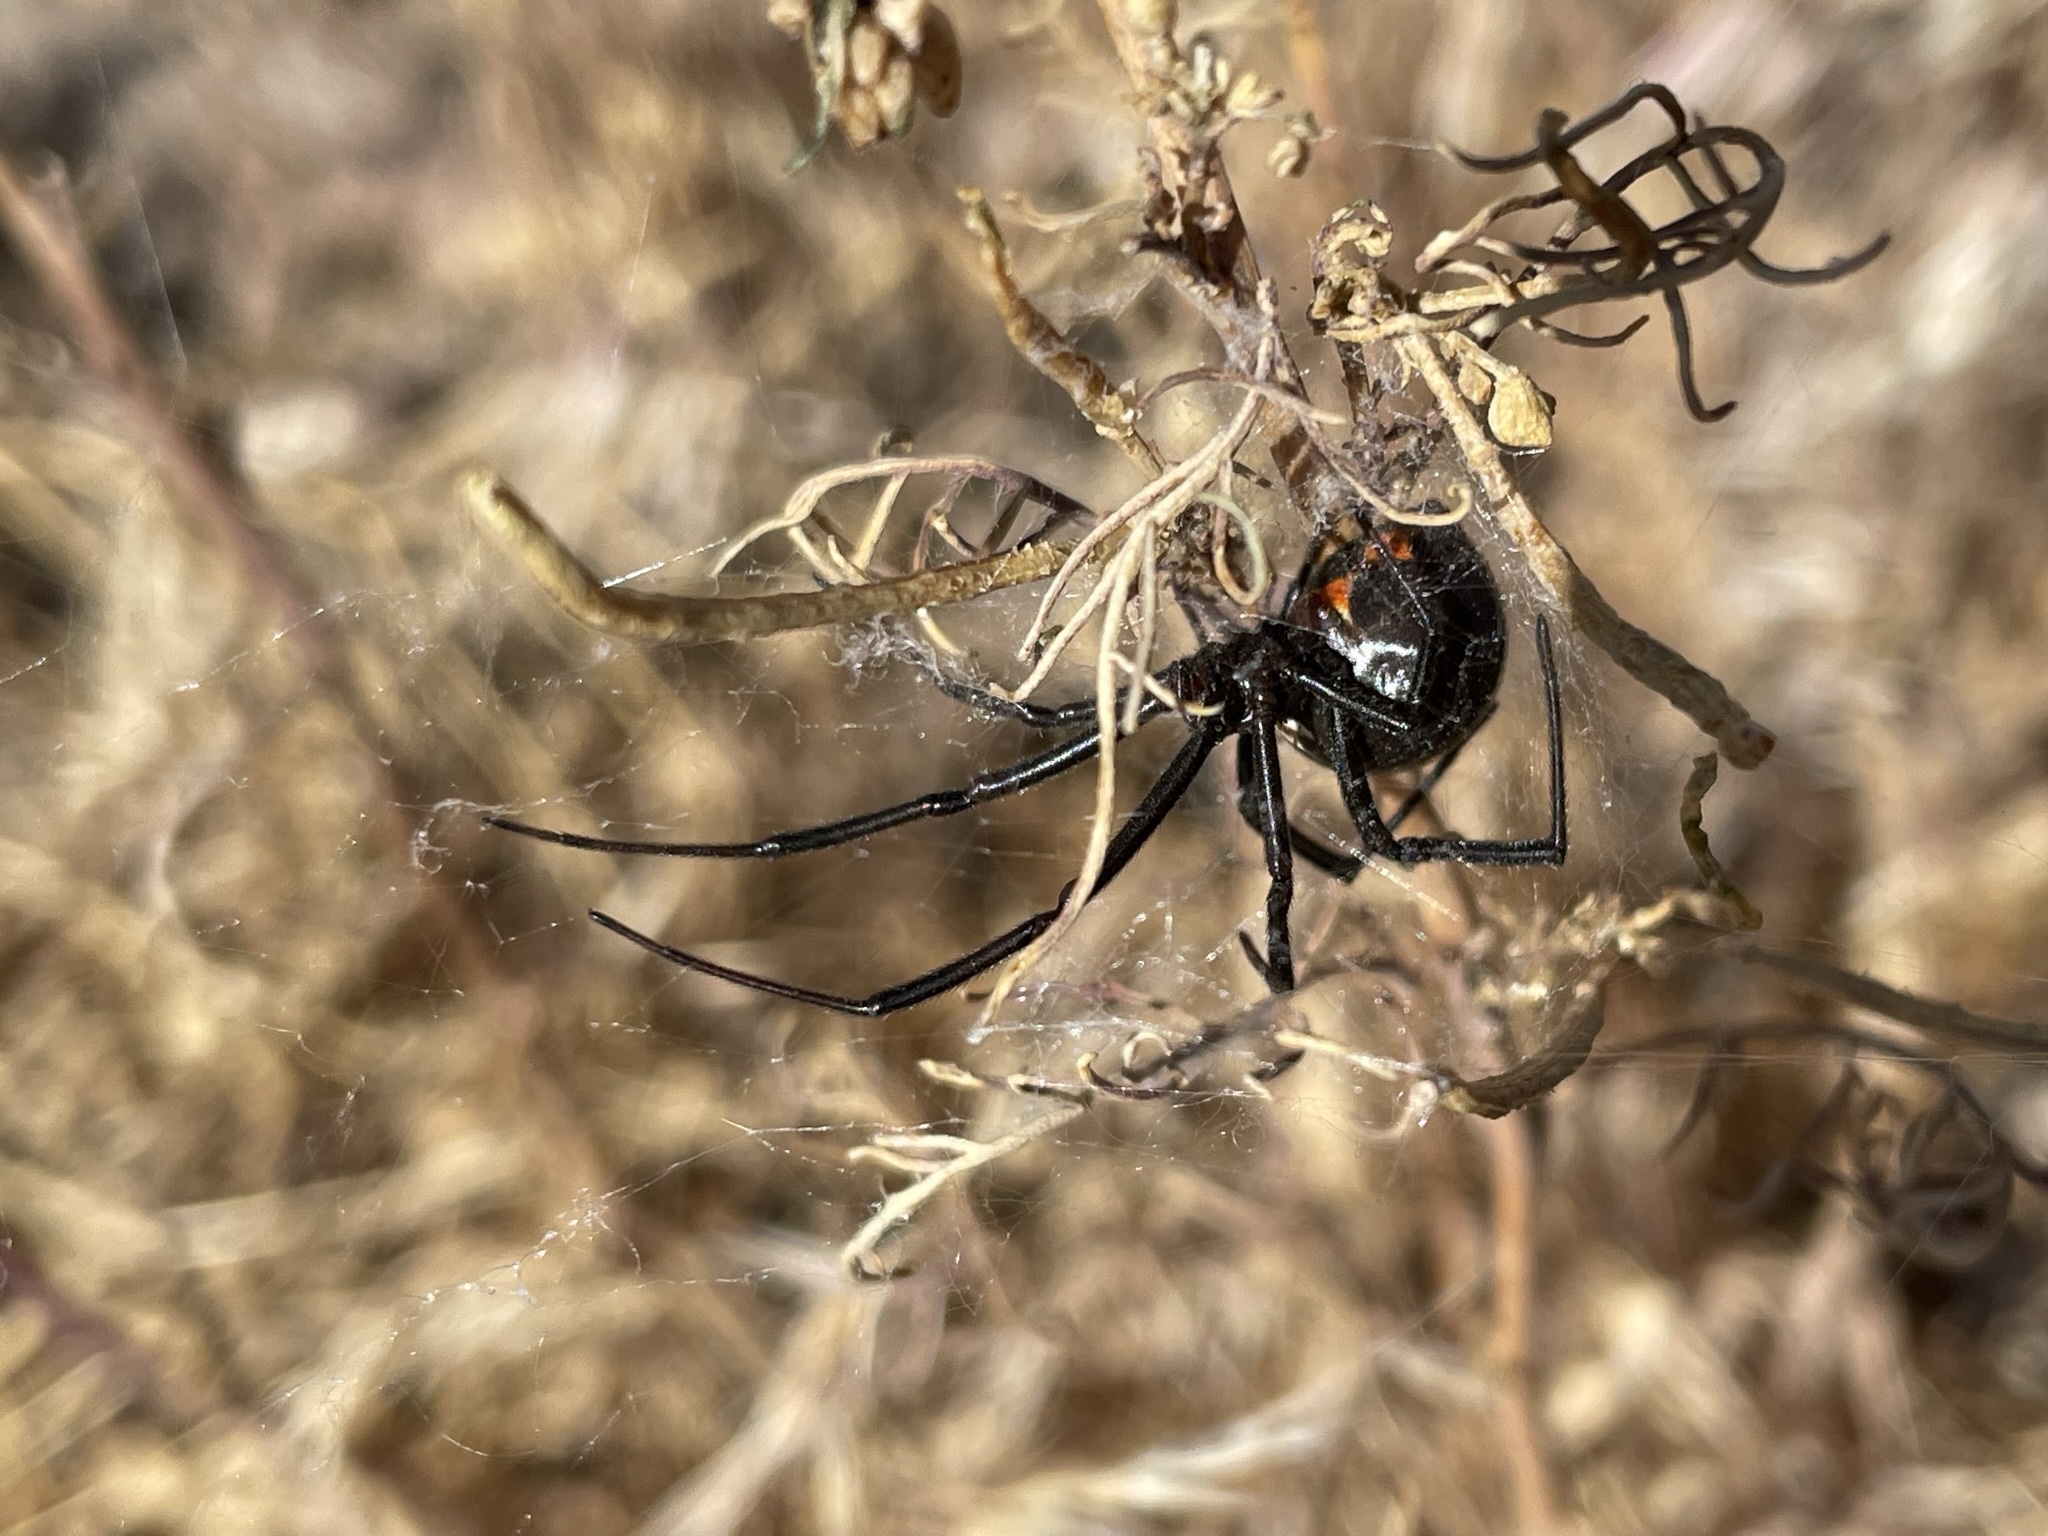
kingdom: Animalia
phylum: Arthropoda
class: Arachnida
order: Araneae
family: Theridiidae
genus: Latrodectus
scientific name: Latrodectus hesperus
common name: Western black widow
